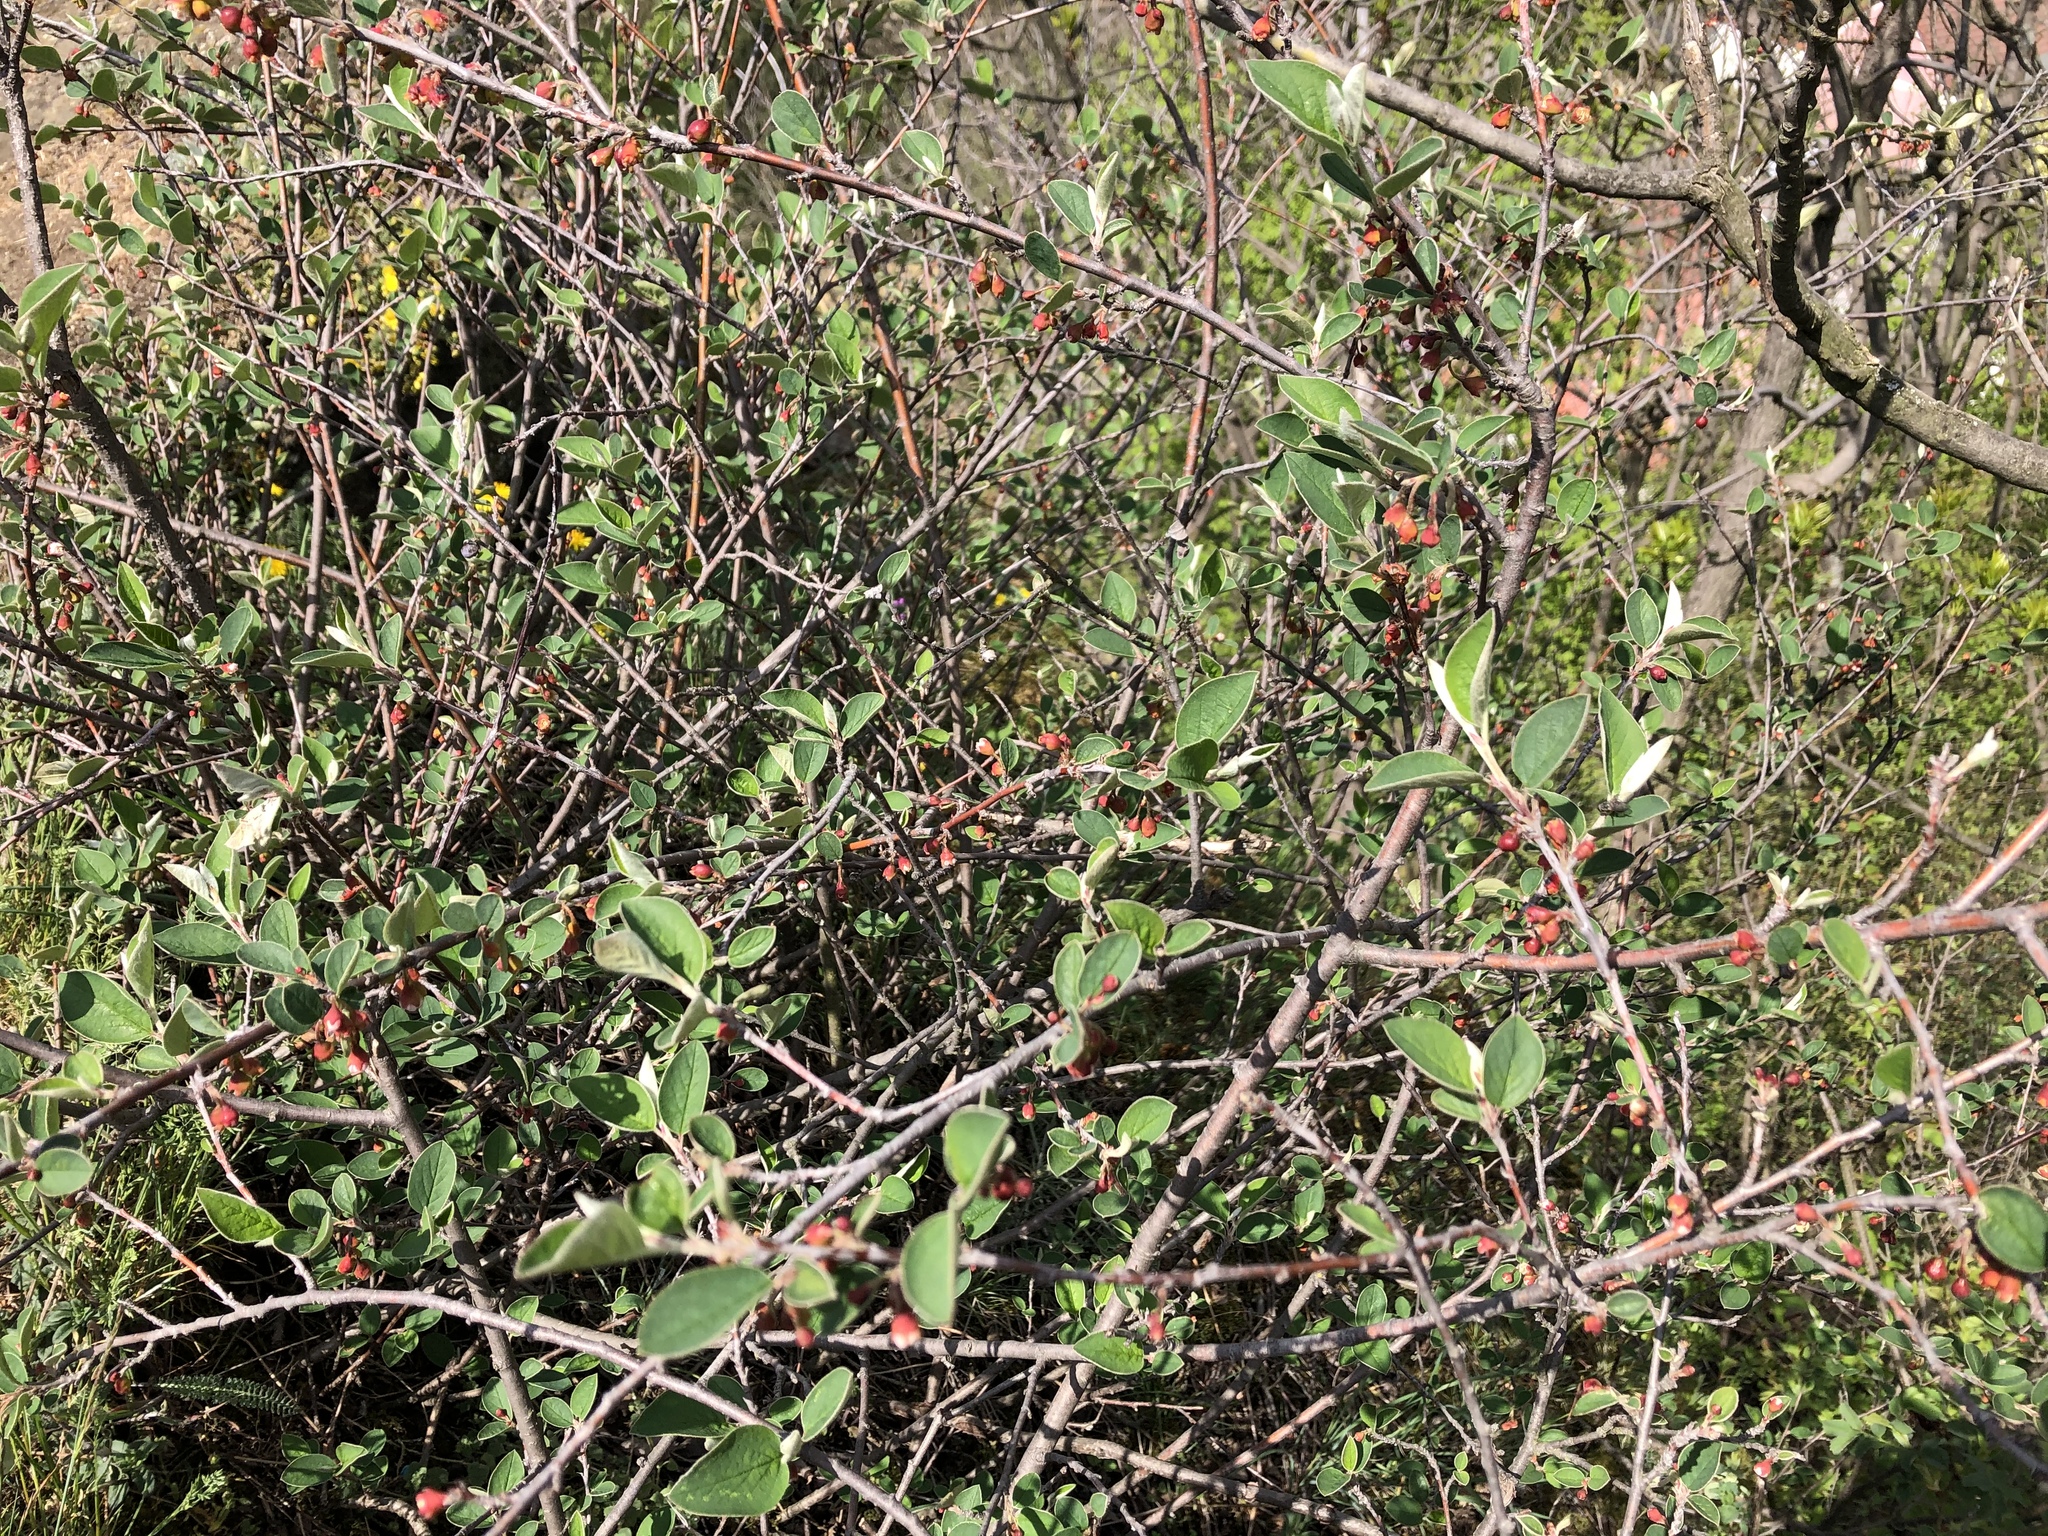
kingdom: Plantae
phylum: Tracheophyta
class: Magnoliopsida
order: Rosales
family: Rosaceae
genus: Cotoneaster
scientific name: Cotoneaster integerrimus
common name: Wild cotoneaster
